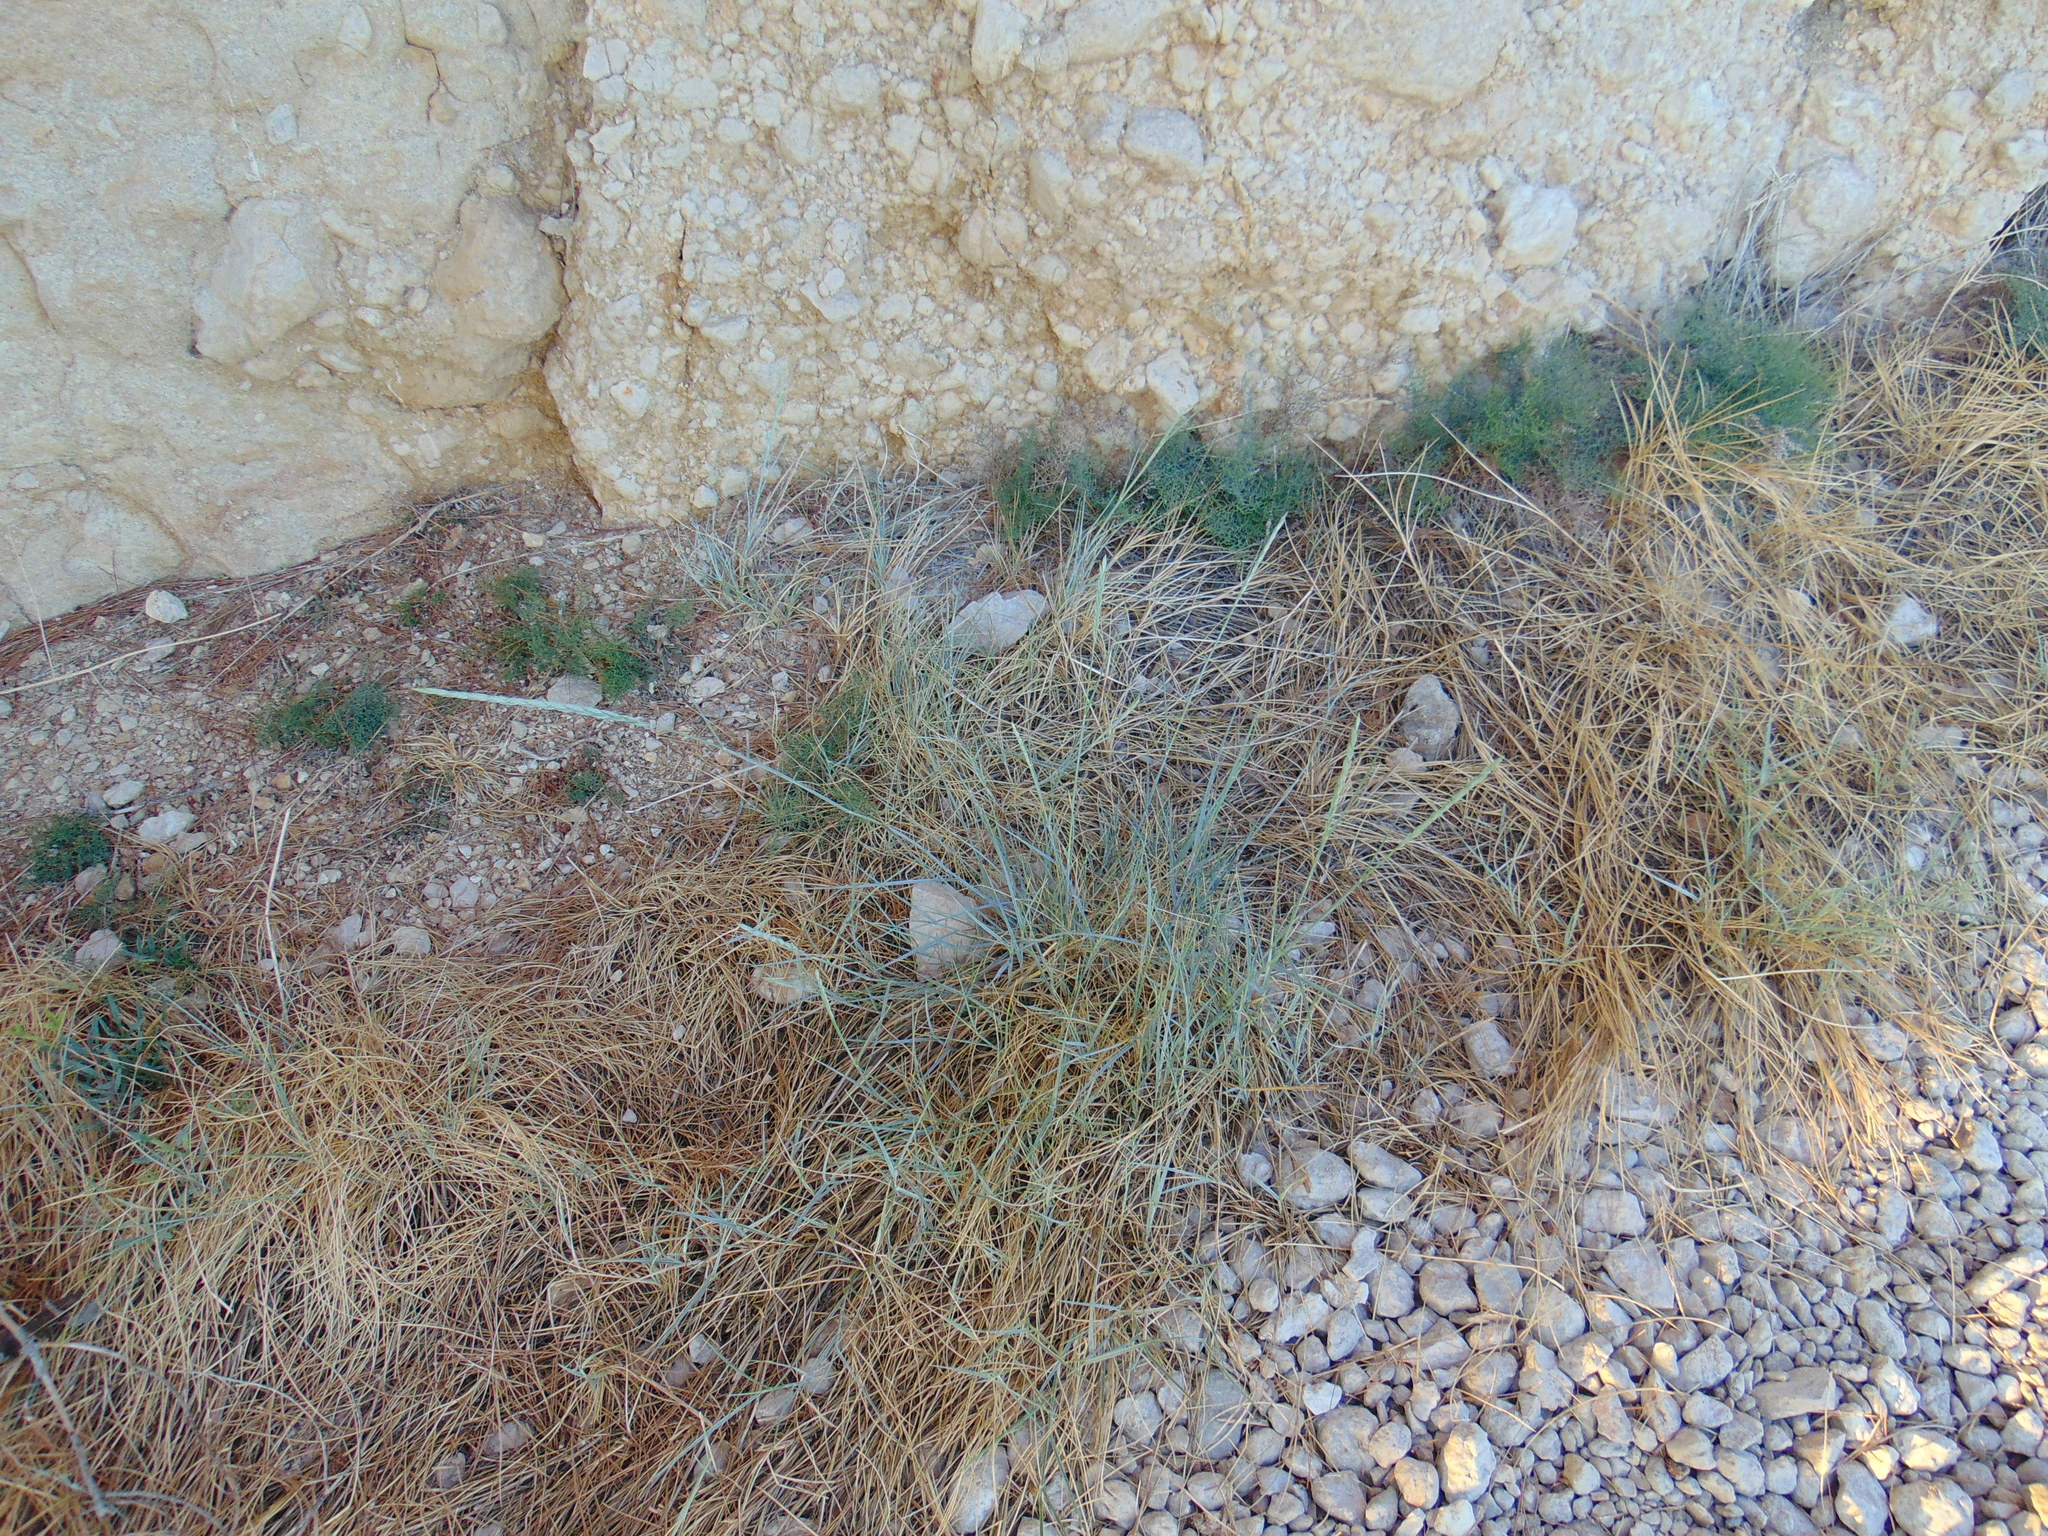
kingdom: Plantae
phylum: Tracheophyta
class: Liliopsida
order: Poales
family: Poaceae
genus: Thinopyrum
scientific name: Thinopyrum acutum
